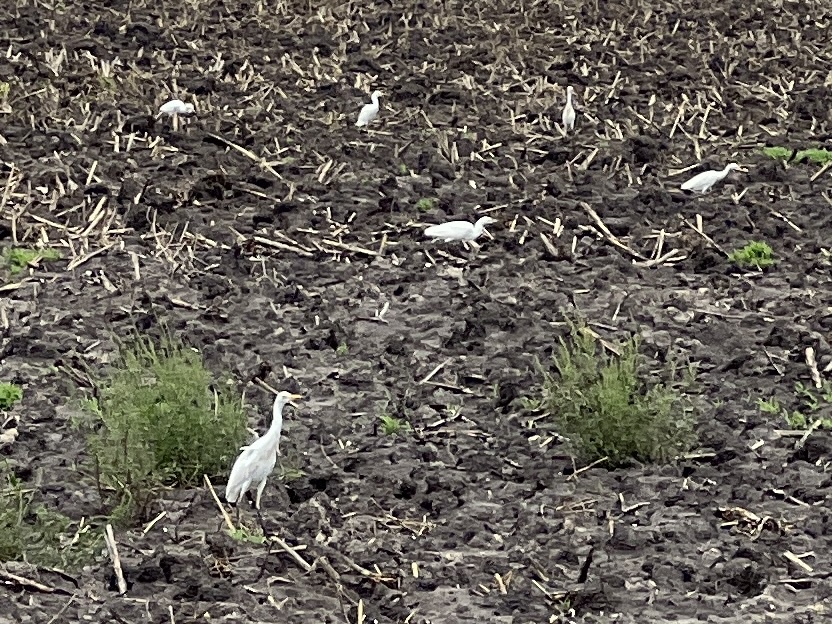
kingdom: Animalia
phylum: Chordata
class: Aves
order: Pelecaniformes
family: Ardeidae
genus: Bubulcus
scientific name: Bubulcus ibis
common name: Cattle egret
